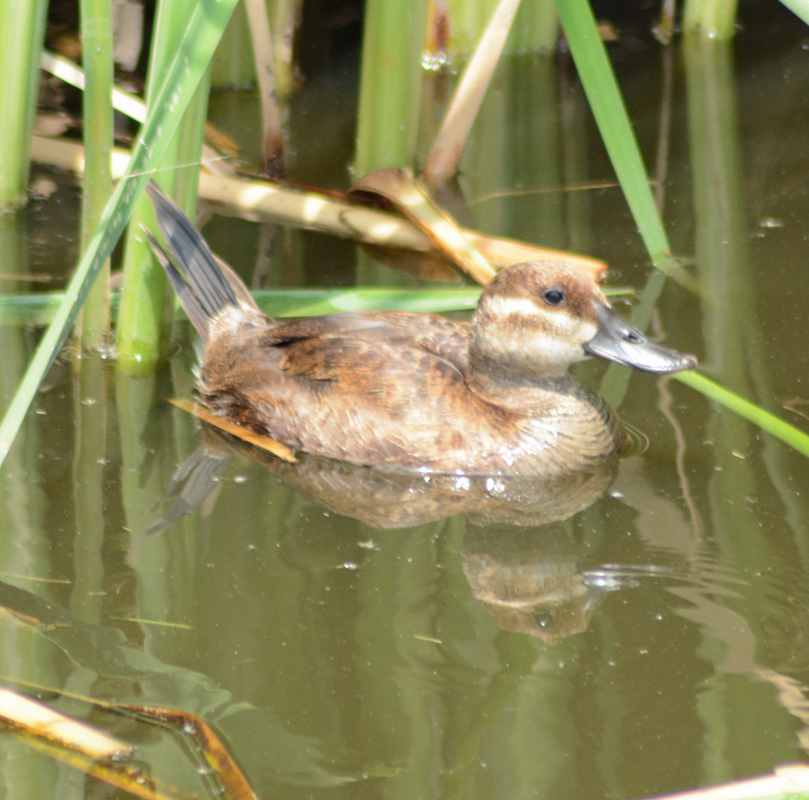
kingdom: Animalia
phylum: Chordata
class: Aves
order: Anseriformes
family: Anatidae
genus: Oxyura
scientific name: Oxyura jamaicensis
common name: Ruddy duck
